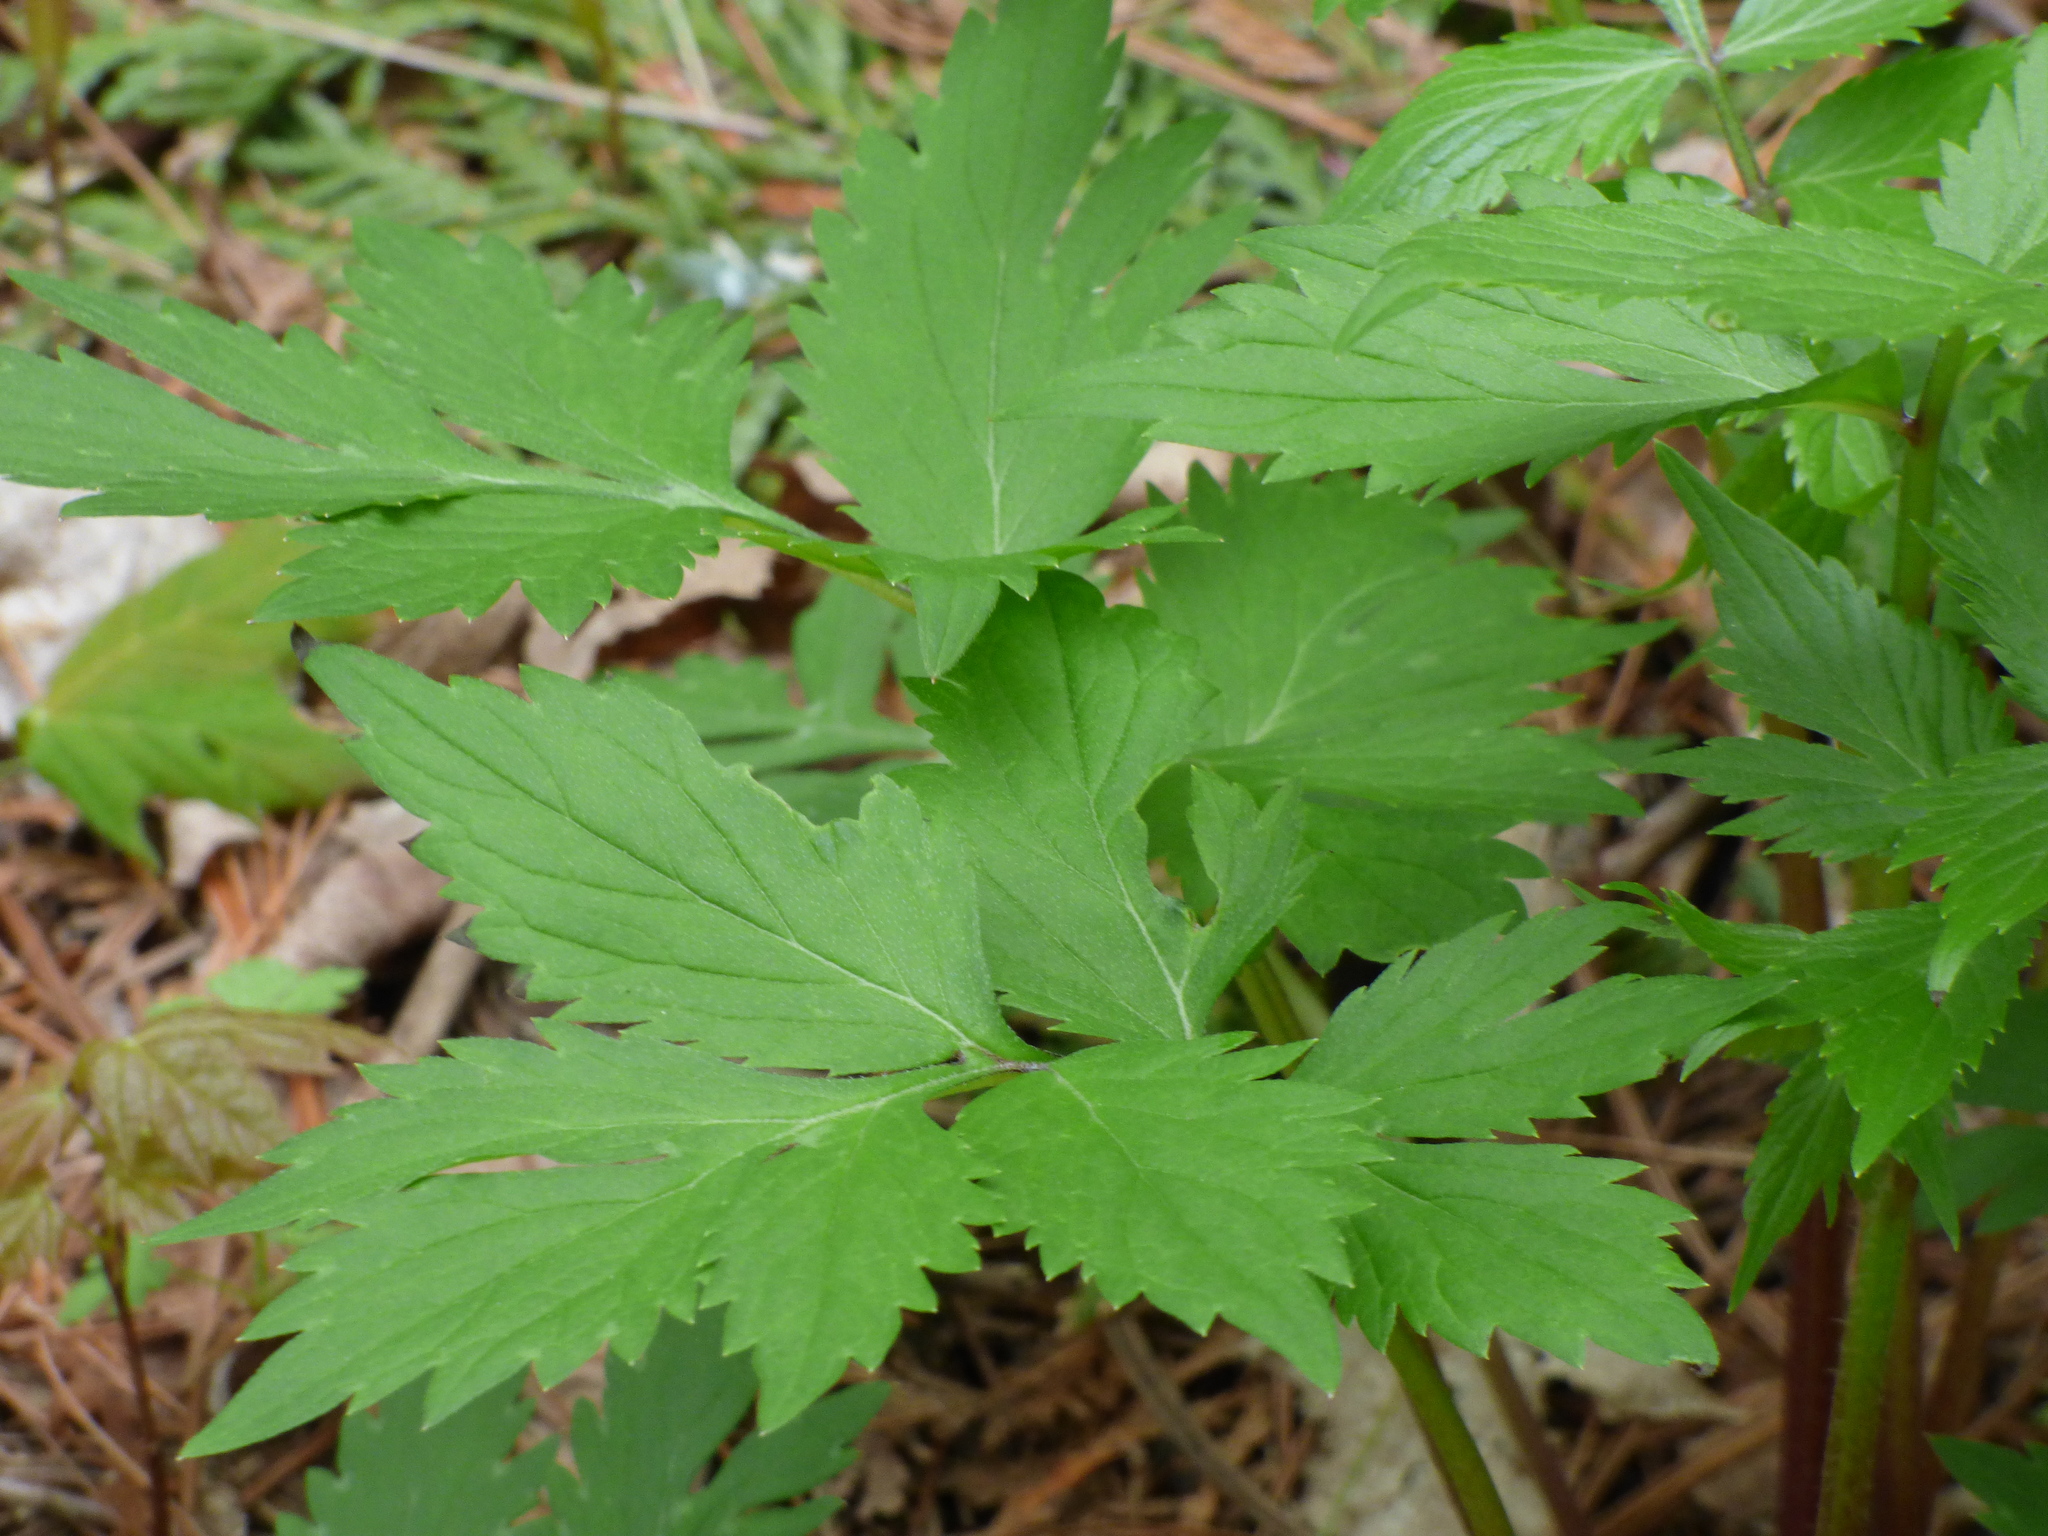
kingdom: Plantae
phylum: Tracheophyta
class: Magnoliopsida
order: Boraginales
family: Hydrophyllaceae
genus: Hydrophyllum
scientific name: Hydrophyllum virginianum
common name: Virginia waterleaf
